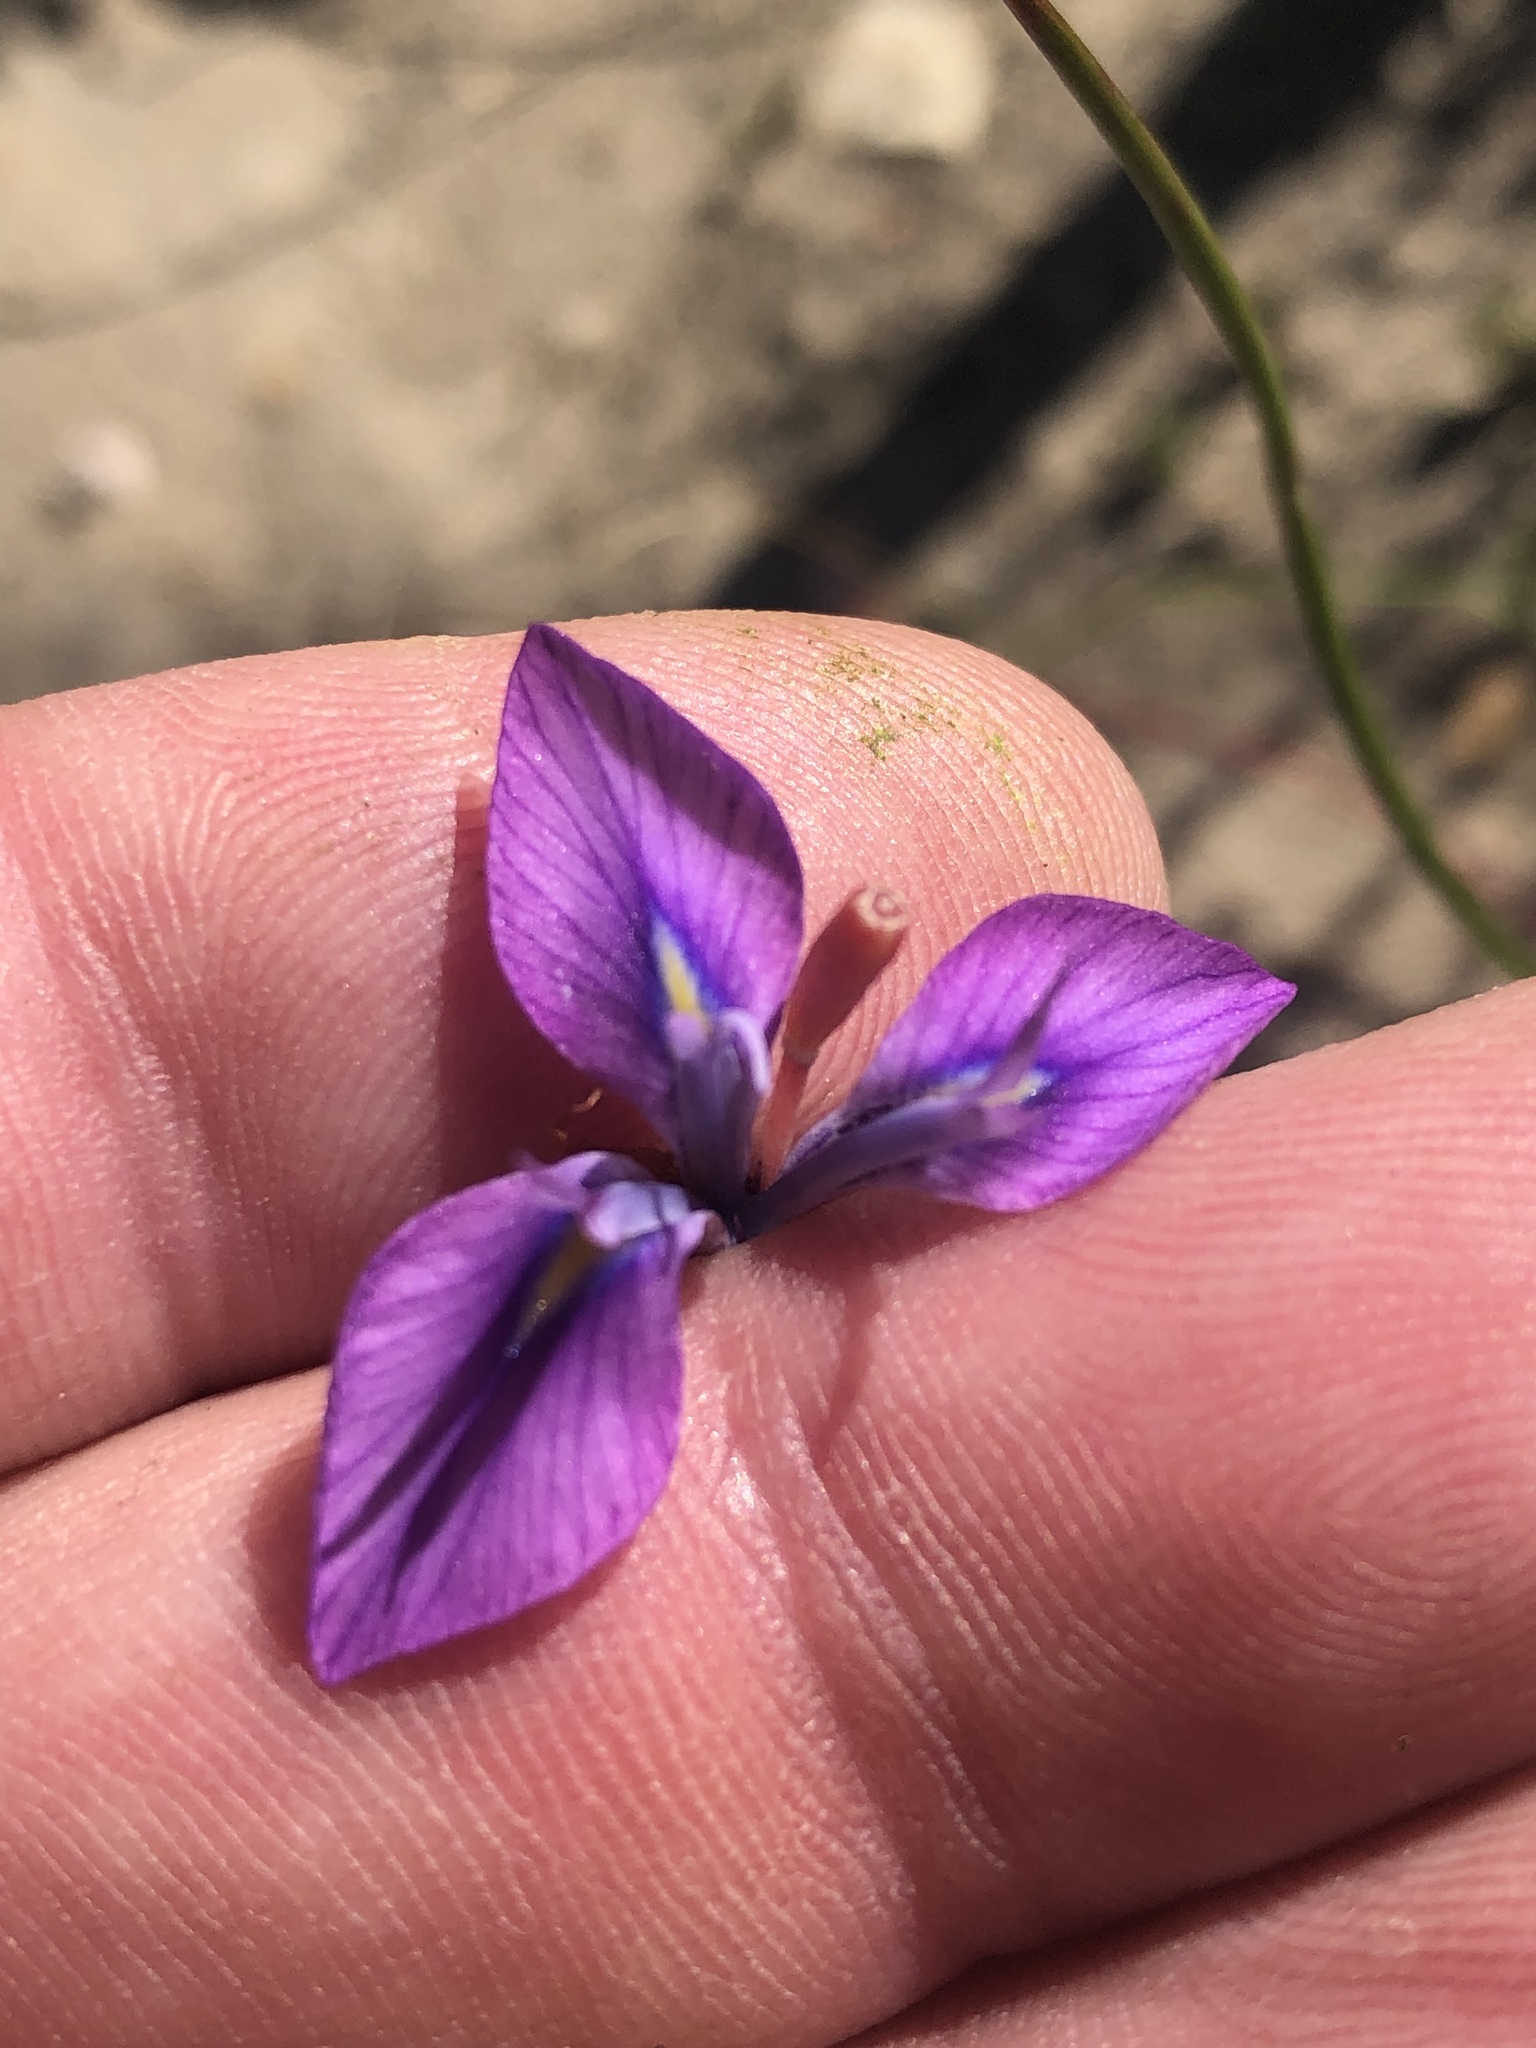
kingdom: Plantae
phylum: Tracheophyta
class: Liliopsida
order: Asparagales
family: Iridaceae
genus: Moraea
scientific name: Moraea tripetala
